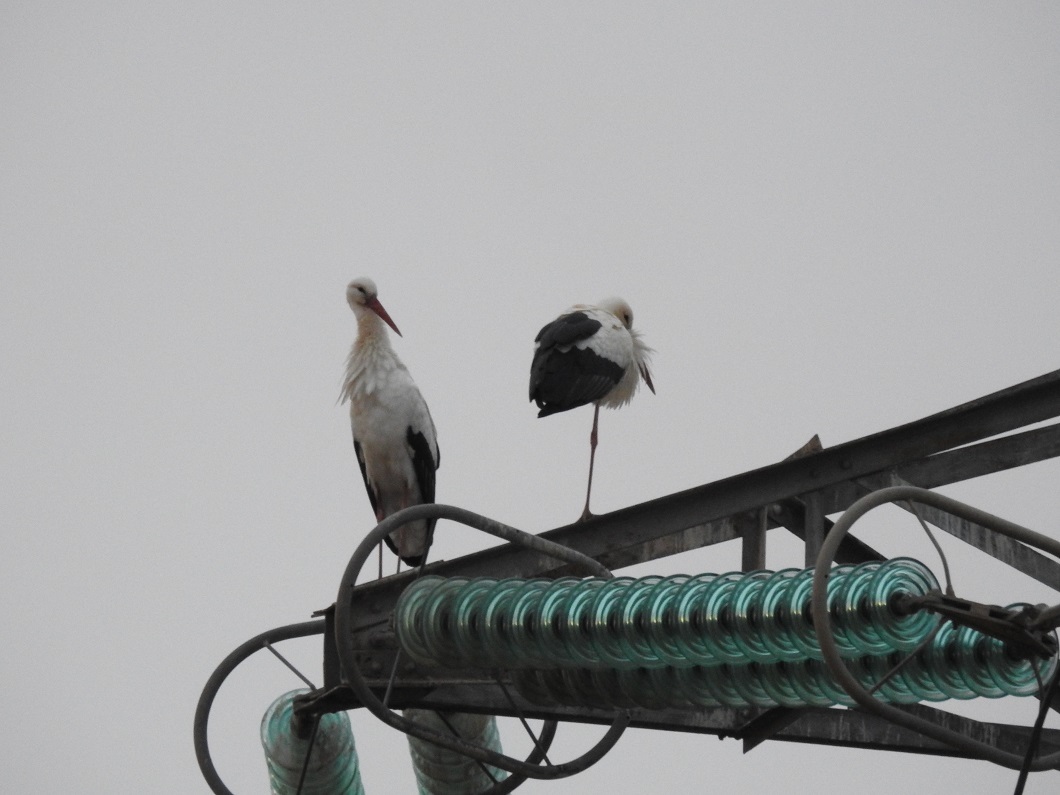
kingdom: Animalia
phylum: Chordata
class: Aves
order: Ciconiiformes
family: Ciconiidae
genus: Ciconia
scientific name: Ciconia ciconia
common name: White stork
